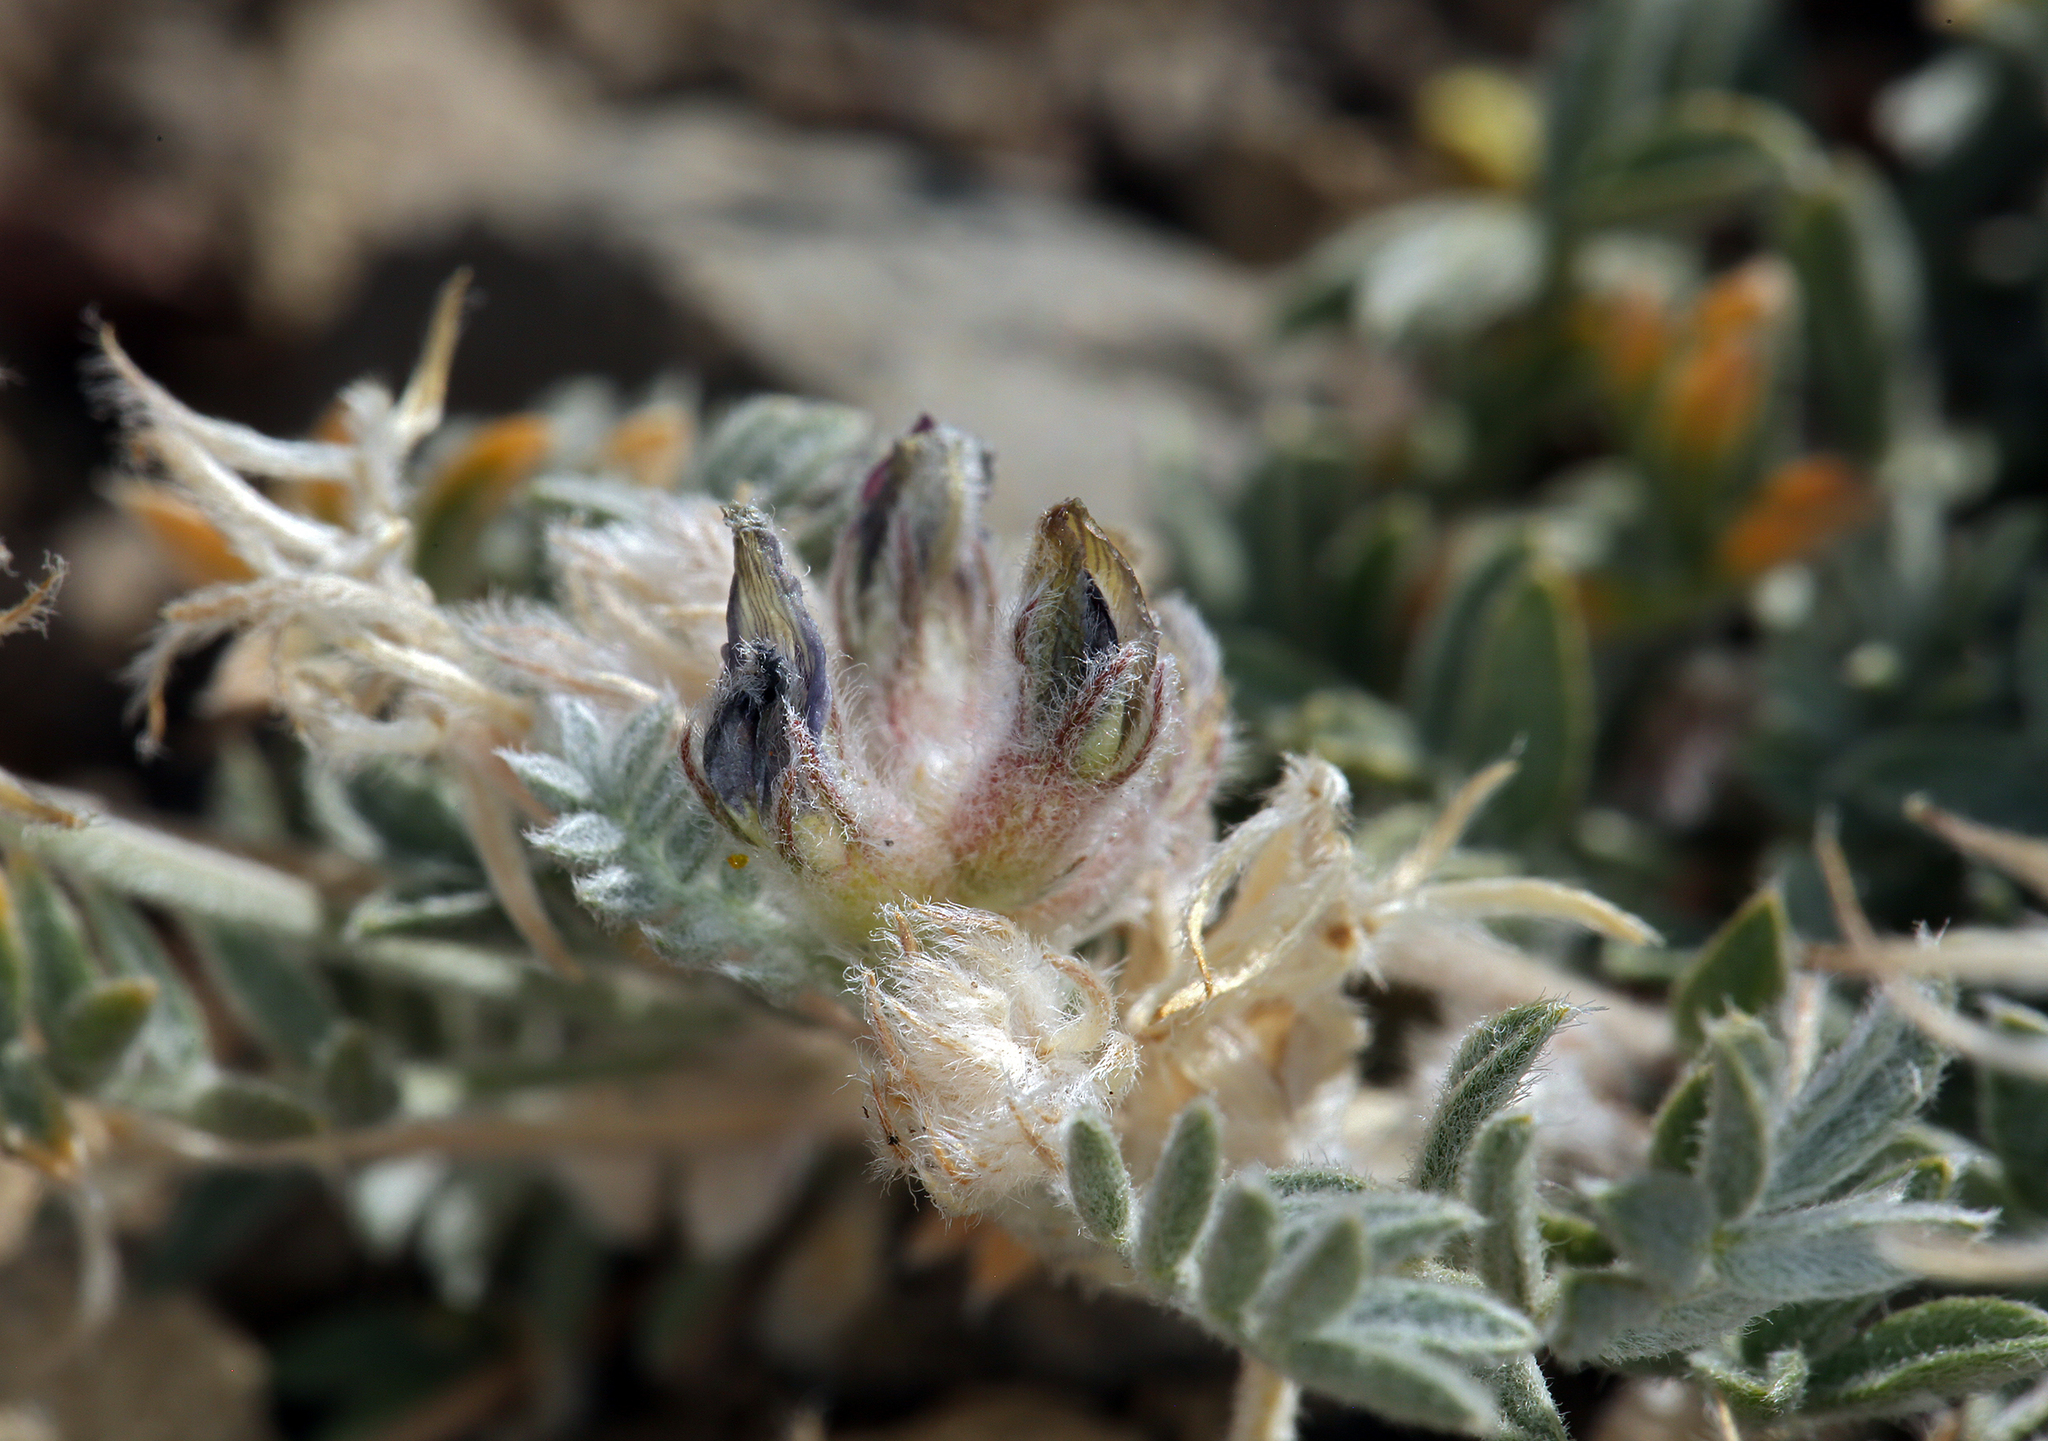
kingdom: Plantae
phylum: Tracheophyta
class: Magnoliopsida
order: Fabales
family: Fabaceae
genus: Astragalus
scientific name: Astragalus austiniae
